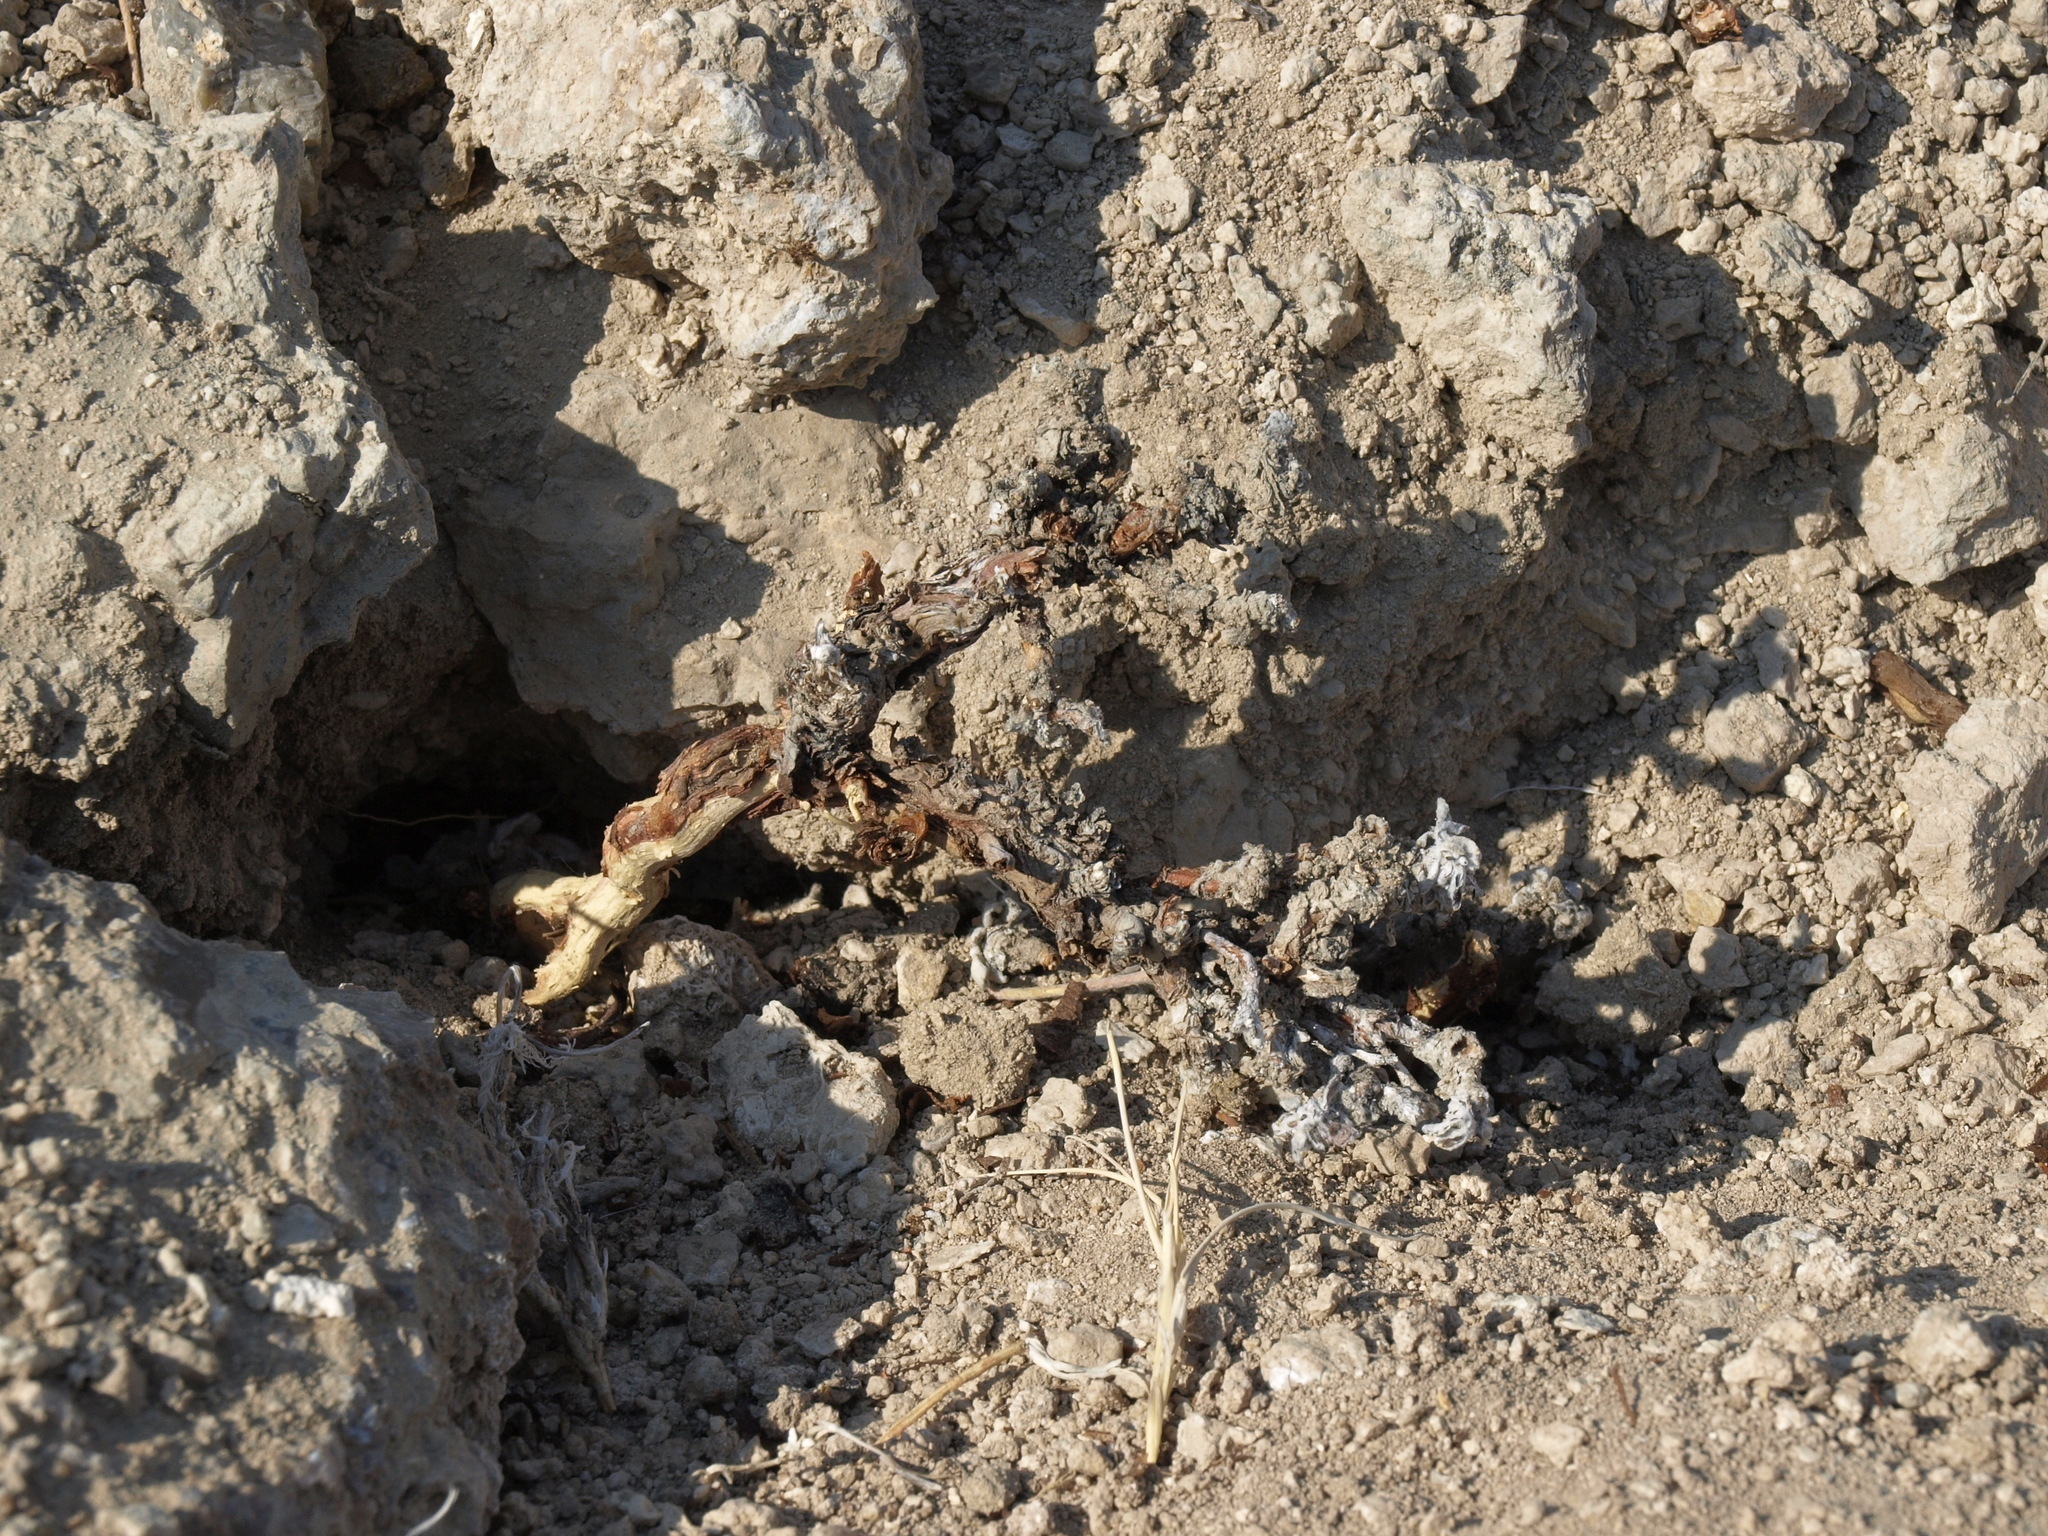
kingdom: Plantae
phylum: Tracheophyta
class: Magnoliopsida
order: Caryophyllales
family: Polygonaceae
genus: Eriogonum
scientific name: Eriogonum tiehmii
